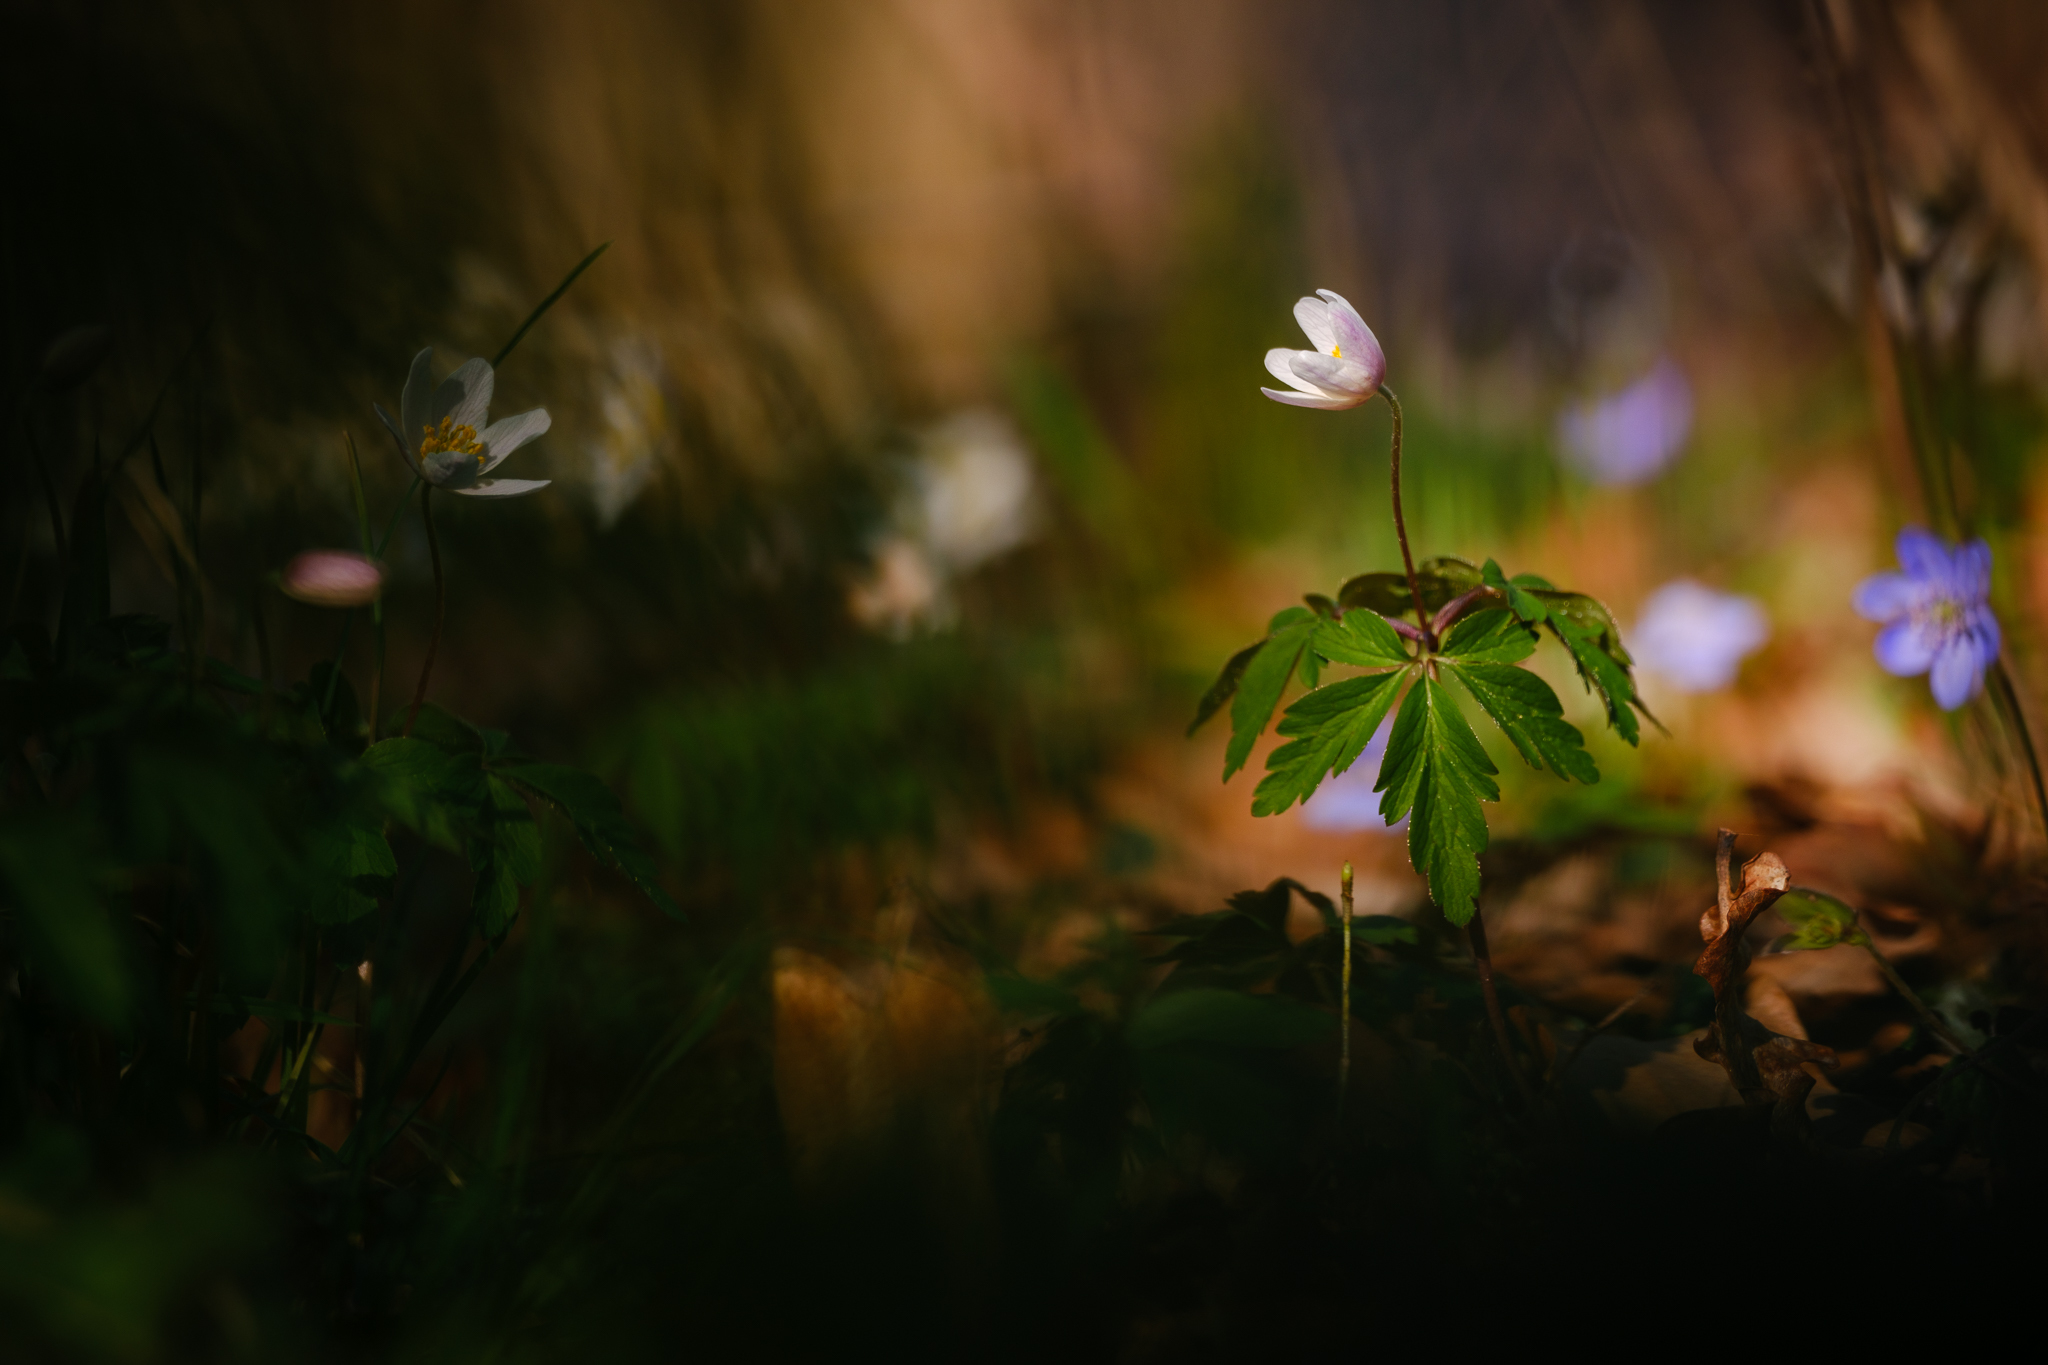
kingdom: Plantae
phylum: Tracheophyta
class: Magnoliopsida
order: Ranunculales
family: Ranunculaceae
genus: Anemone
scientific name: Anemone nemorosa
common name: Wood anemone
